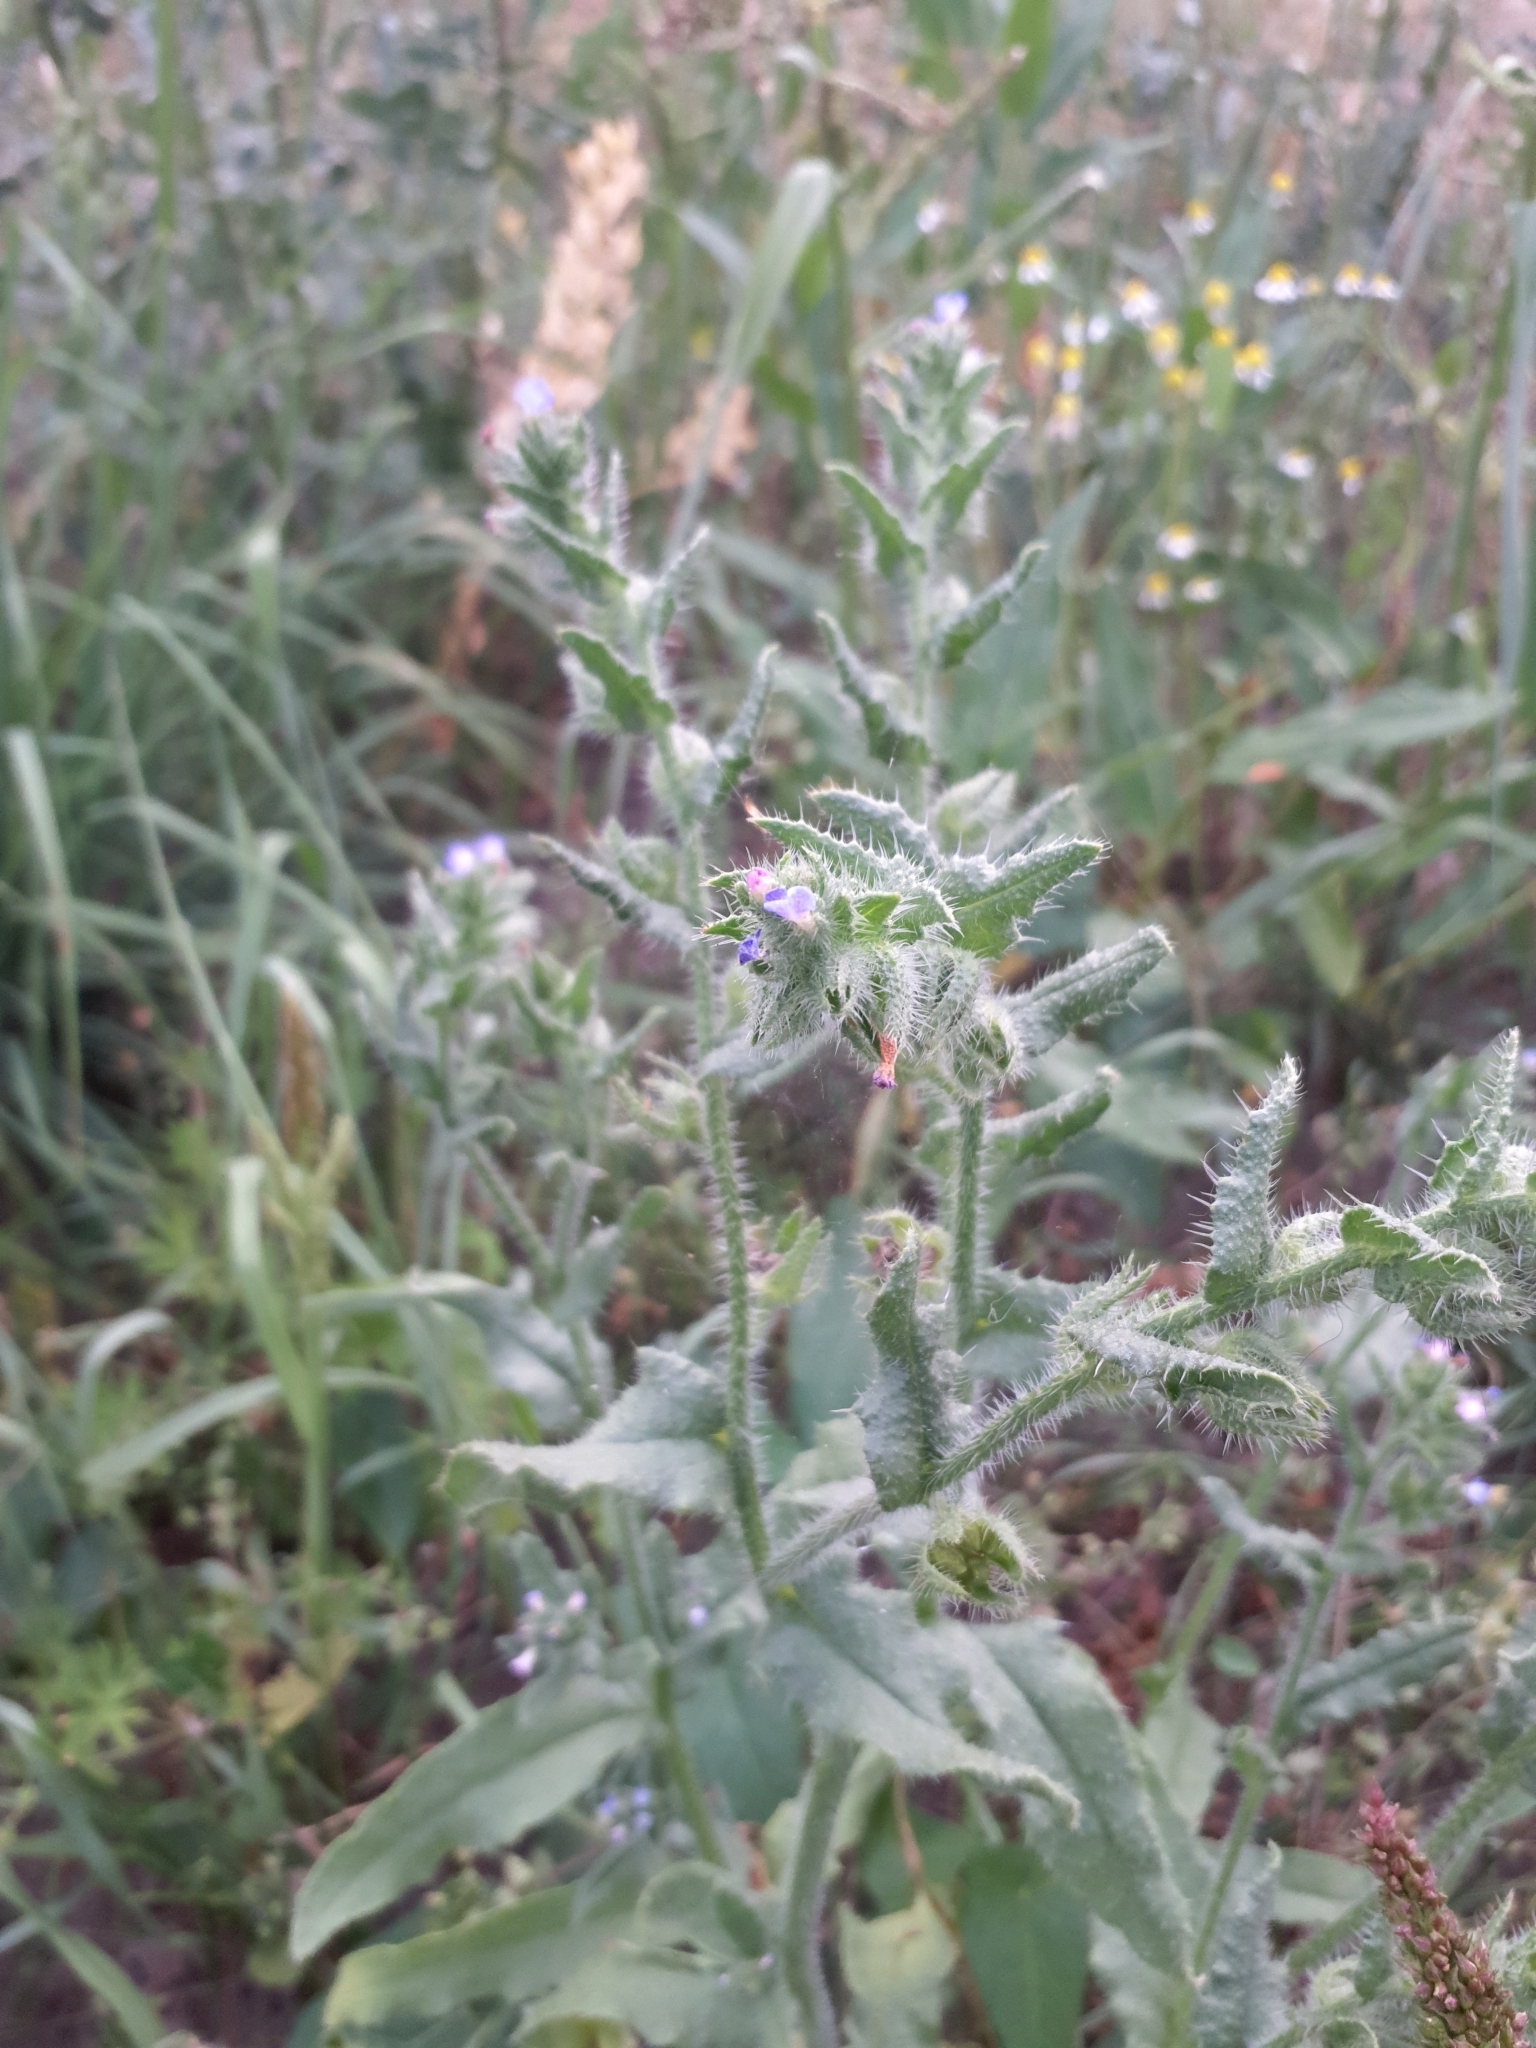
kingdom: Plantae
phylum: Tracheophyta
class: Magnoliopsida
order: Boraginales
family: Boraginaceae
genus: Lycopsis
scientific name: Lycopsis arvensis
